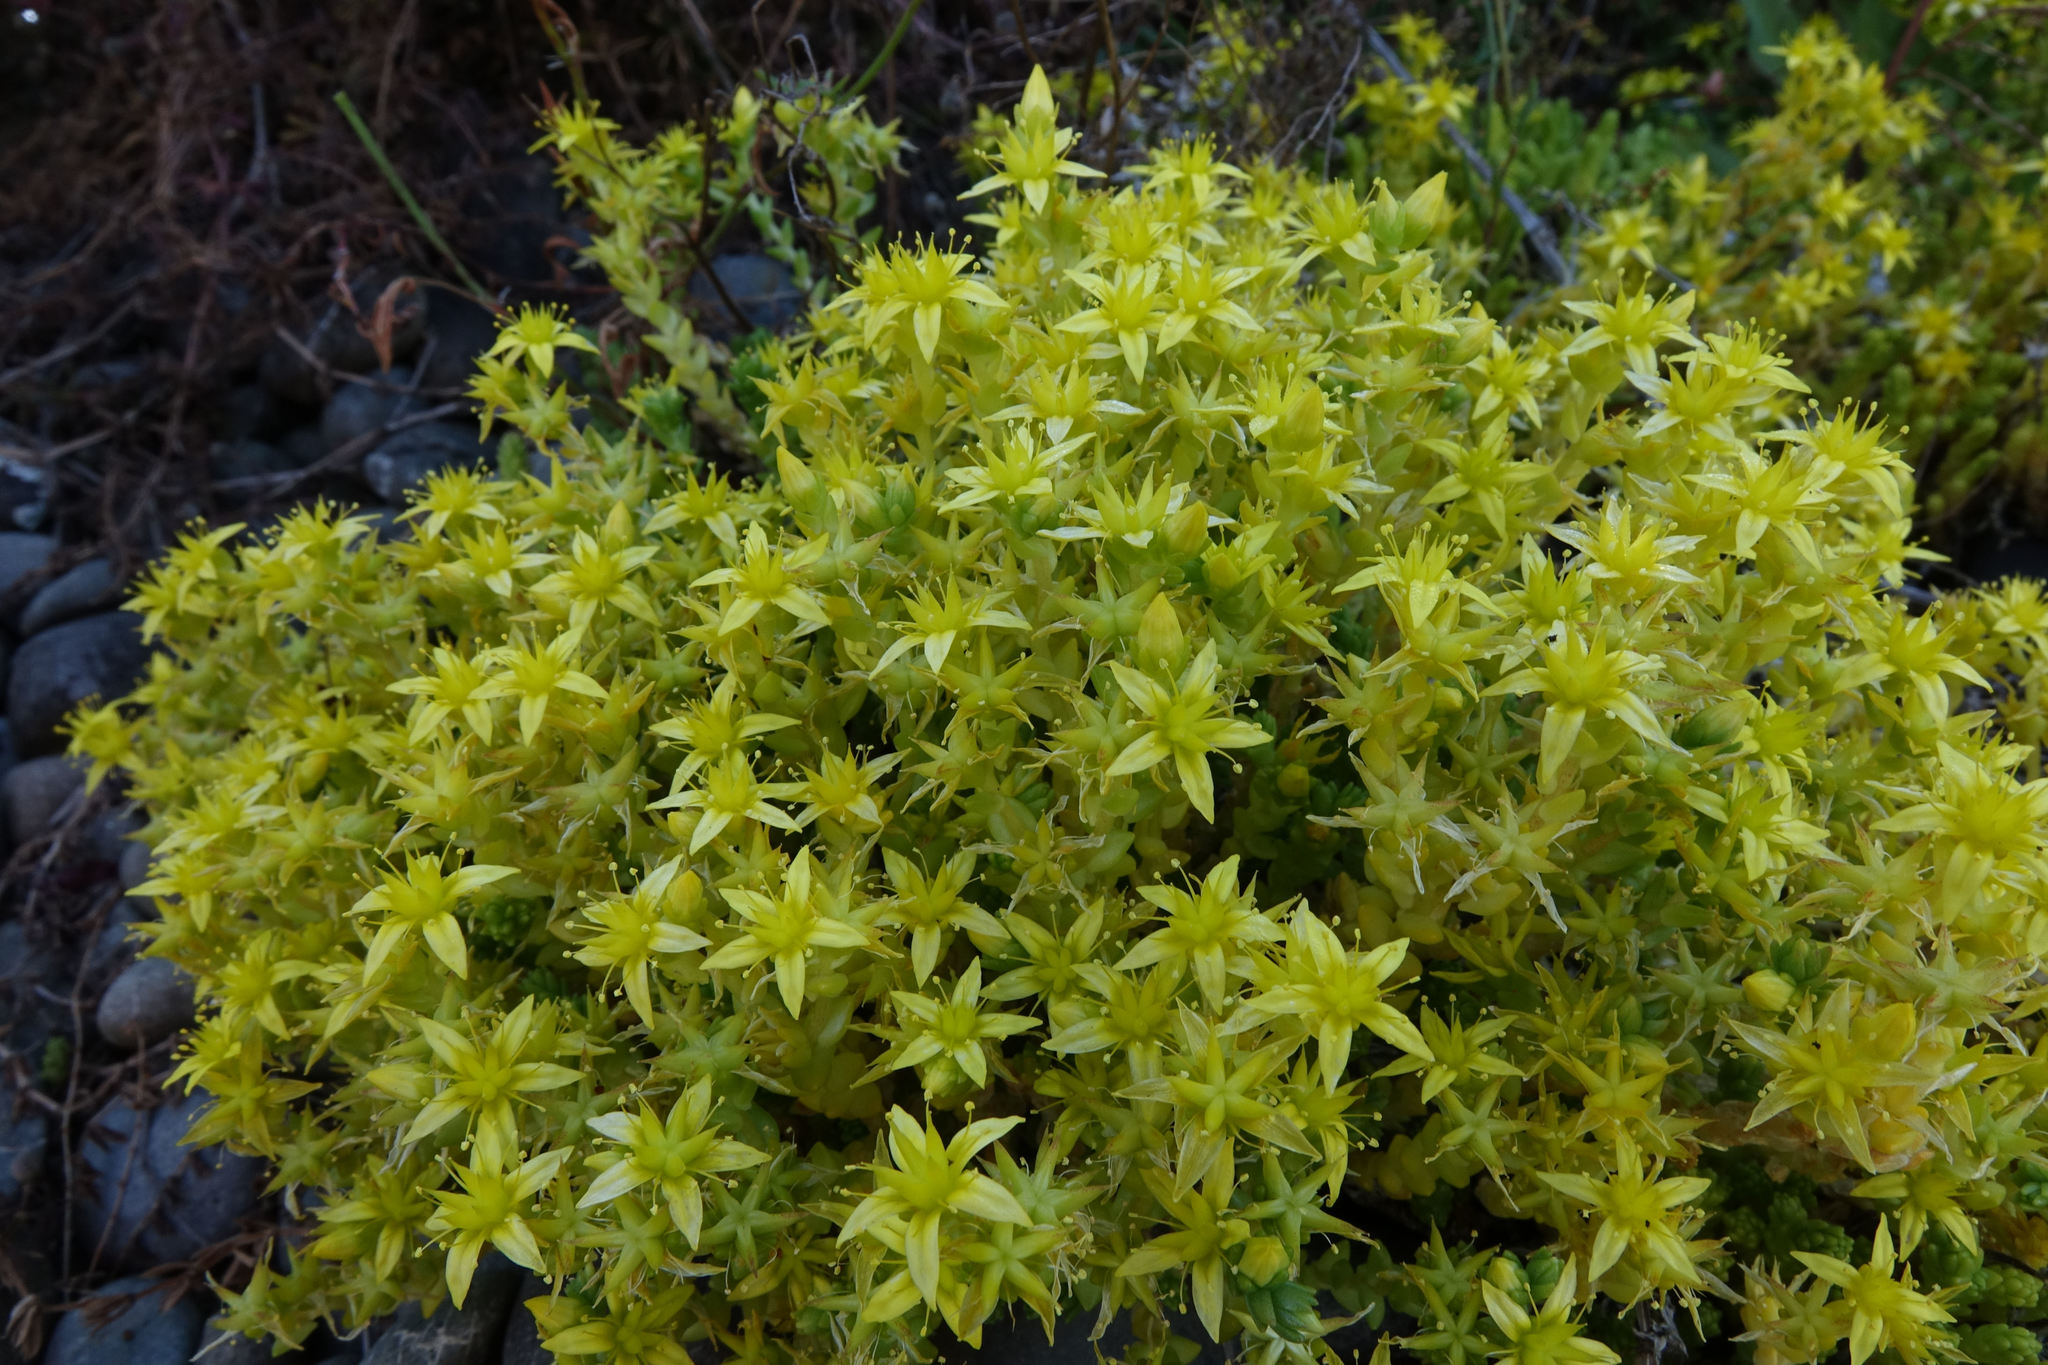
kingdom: Plantae
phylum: Tracheophyta
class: Magnoliopsida
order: Saxifragales
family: Crassulaceae
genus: Sedum
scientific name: Sedum acre
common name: Biting stonecrop
